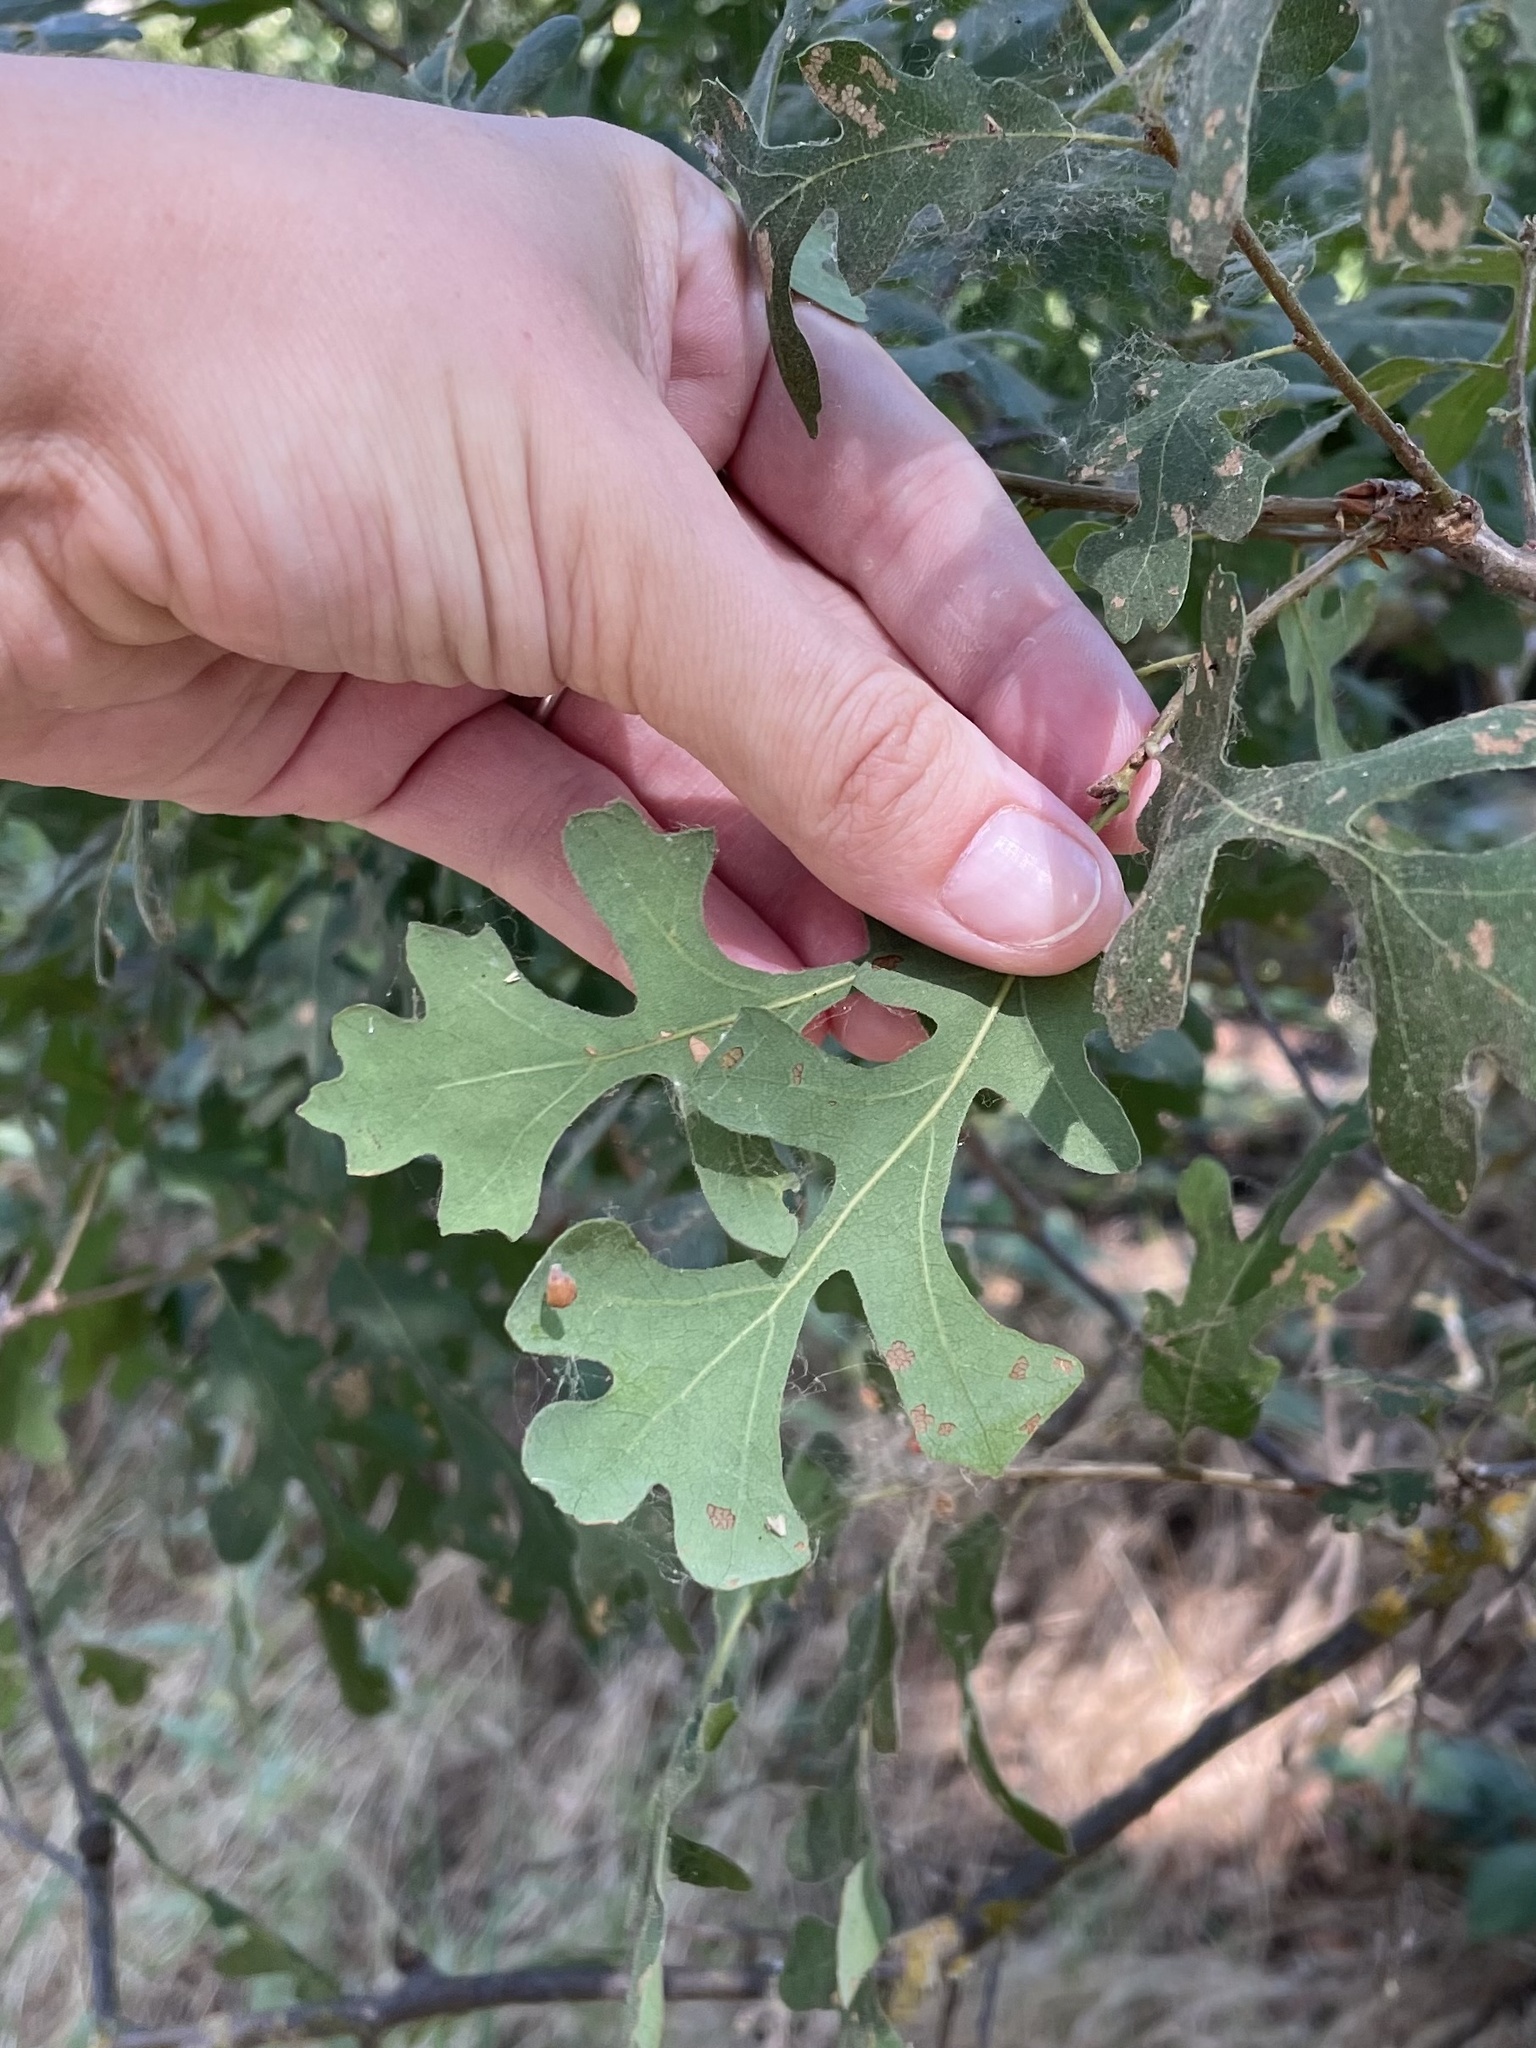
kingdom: Plantae
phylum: Tracheophyta
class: Magnoliopsida
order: Fagales
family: Fagaceae
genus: Quercus
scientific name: Quercus lobata
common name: Valley oak
